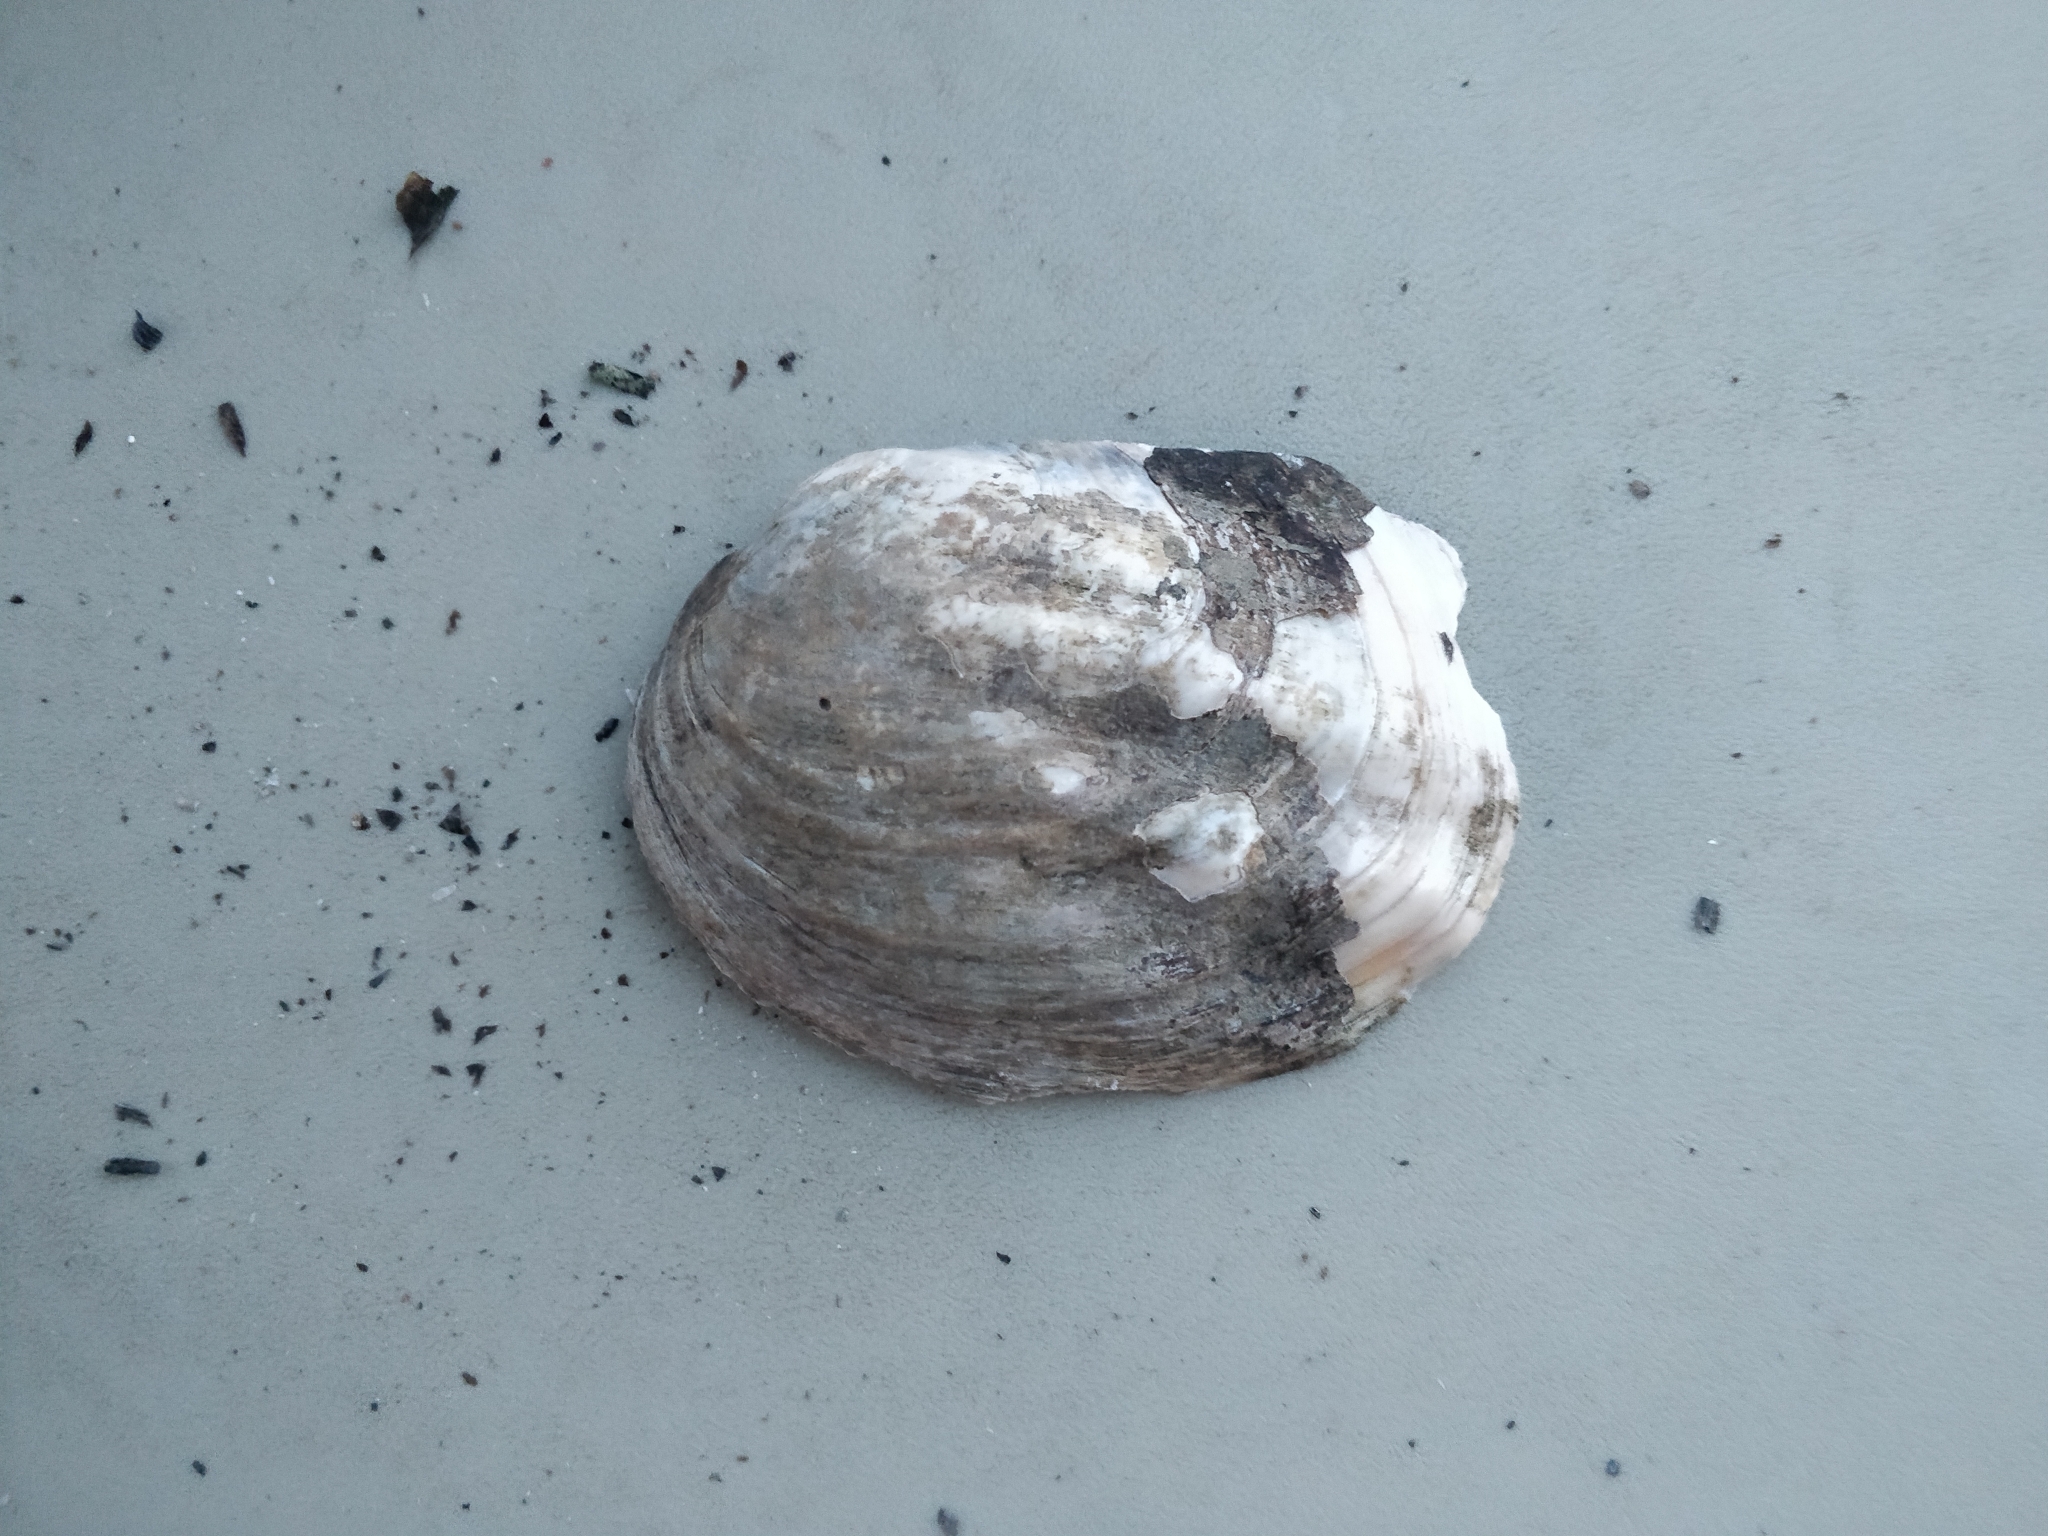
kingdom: Animalia
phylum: Mollusca
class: Bivalvia
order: Unionida
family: Unionidae
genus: Amblema
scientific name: Amblema plicata
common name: Threeridge
